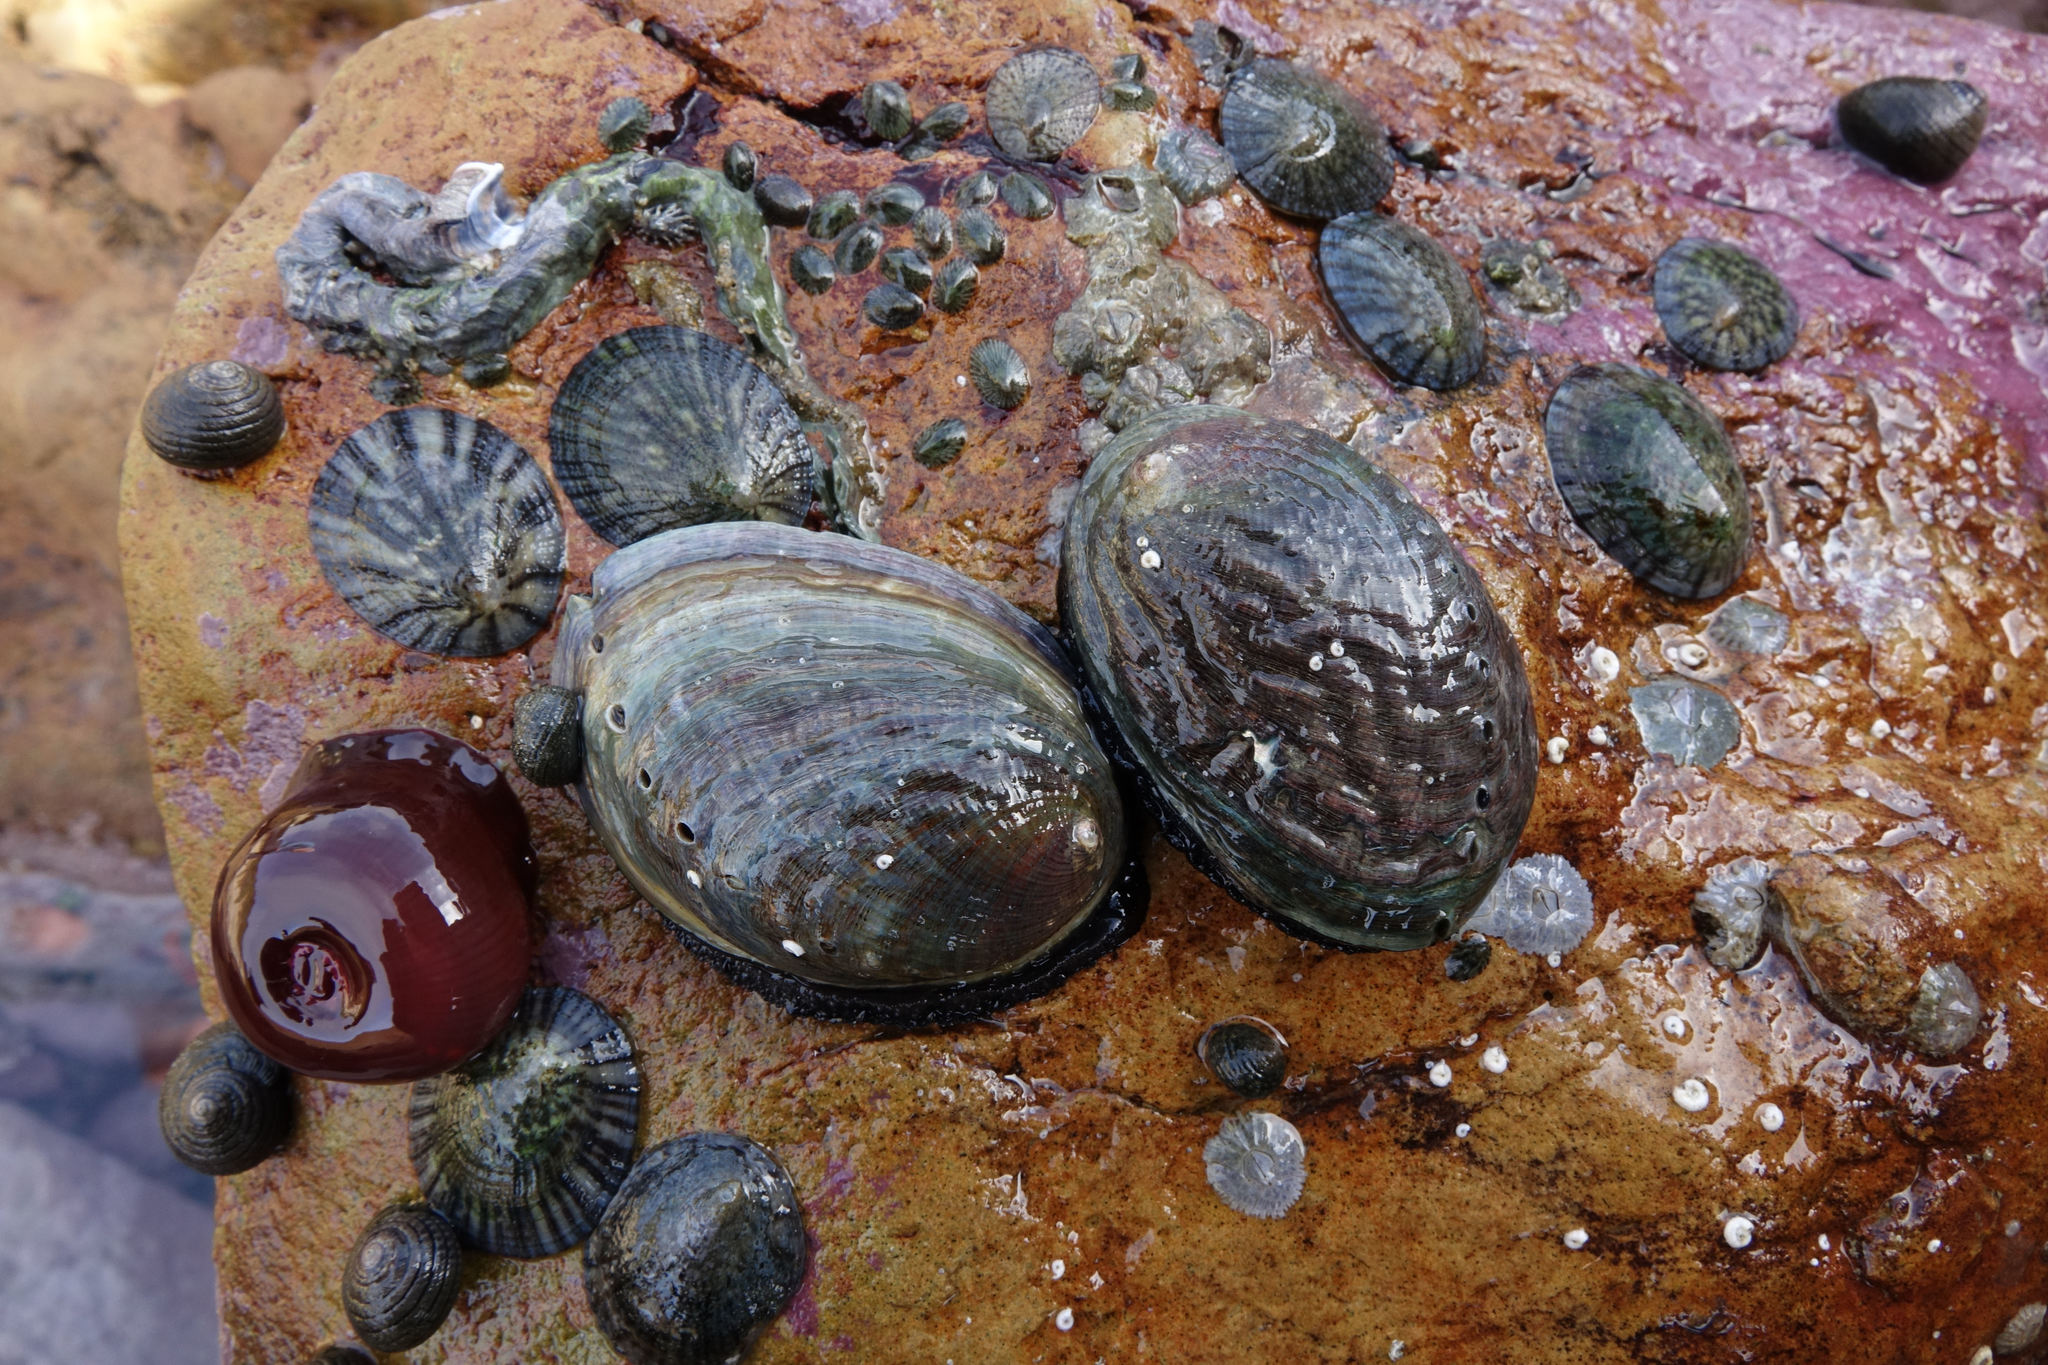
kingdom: Animalia
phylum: Mollusca
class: Gastropoda
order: Lepetellida
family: Haliotidae
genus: Haliotis
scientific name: Haliotis iris
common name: Abalone
